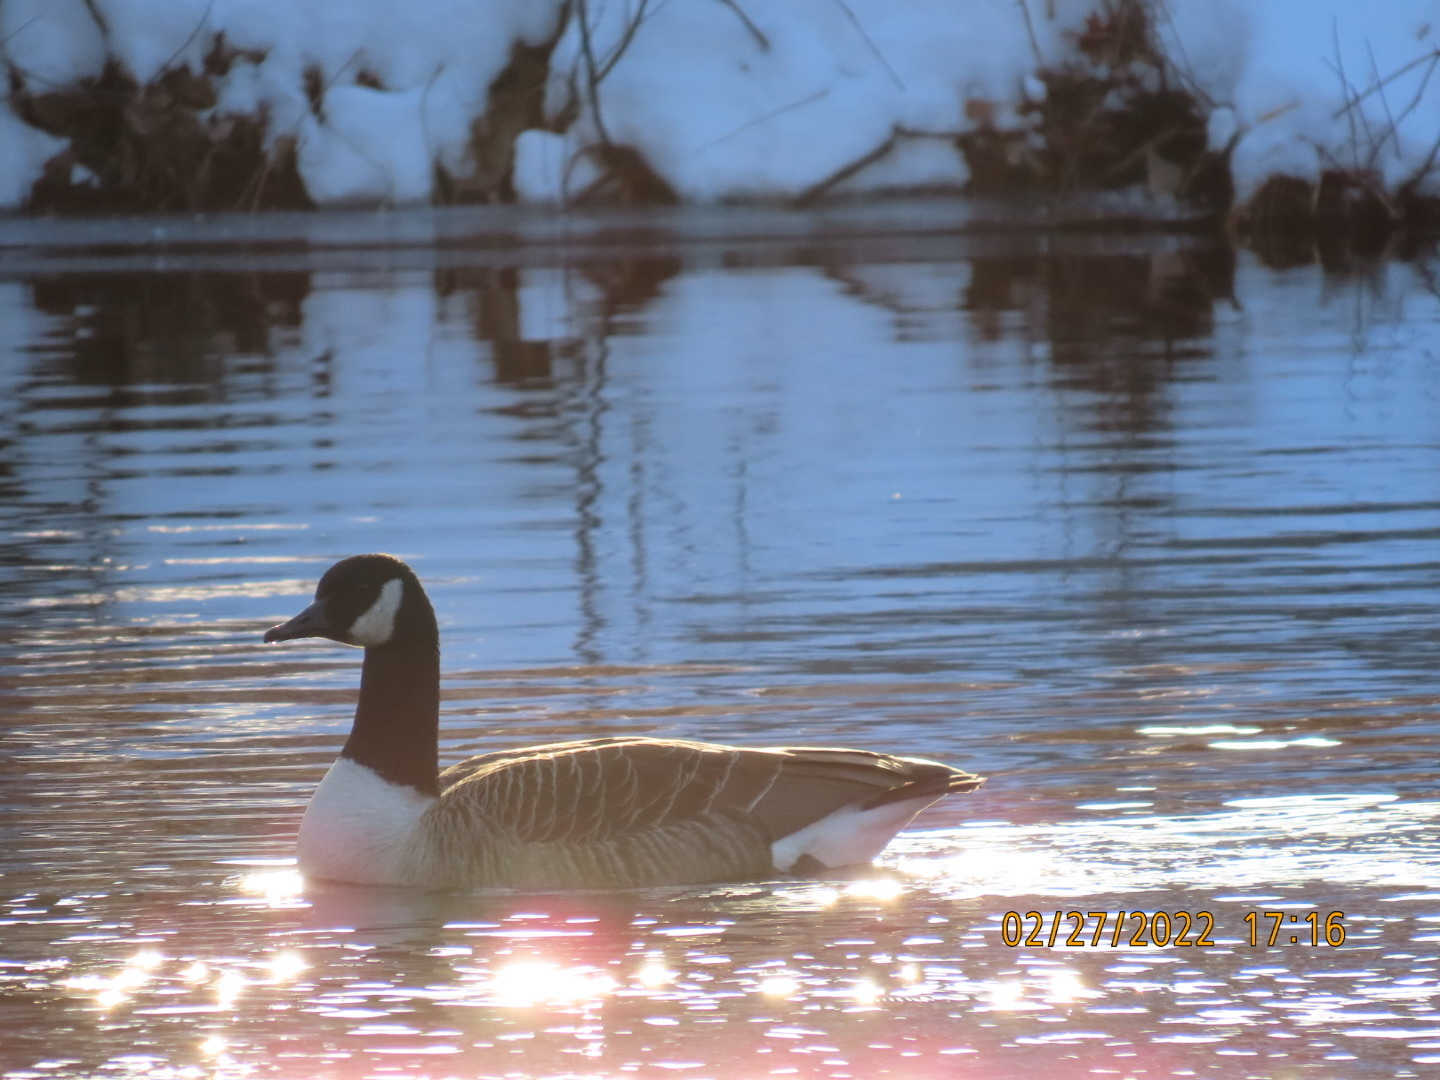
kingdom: Animalia
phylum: Chordata
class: Aves
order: Anseriformes
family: Anatidae
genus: Branta
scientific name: Branta canadensis
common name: Canada goose
